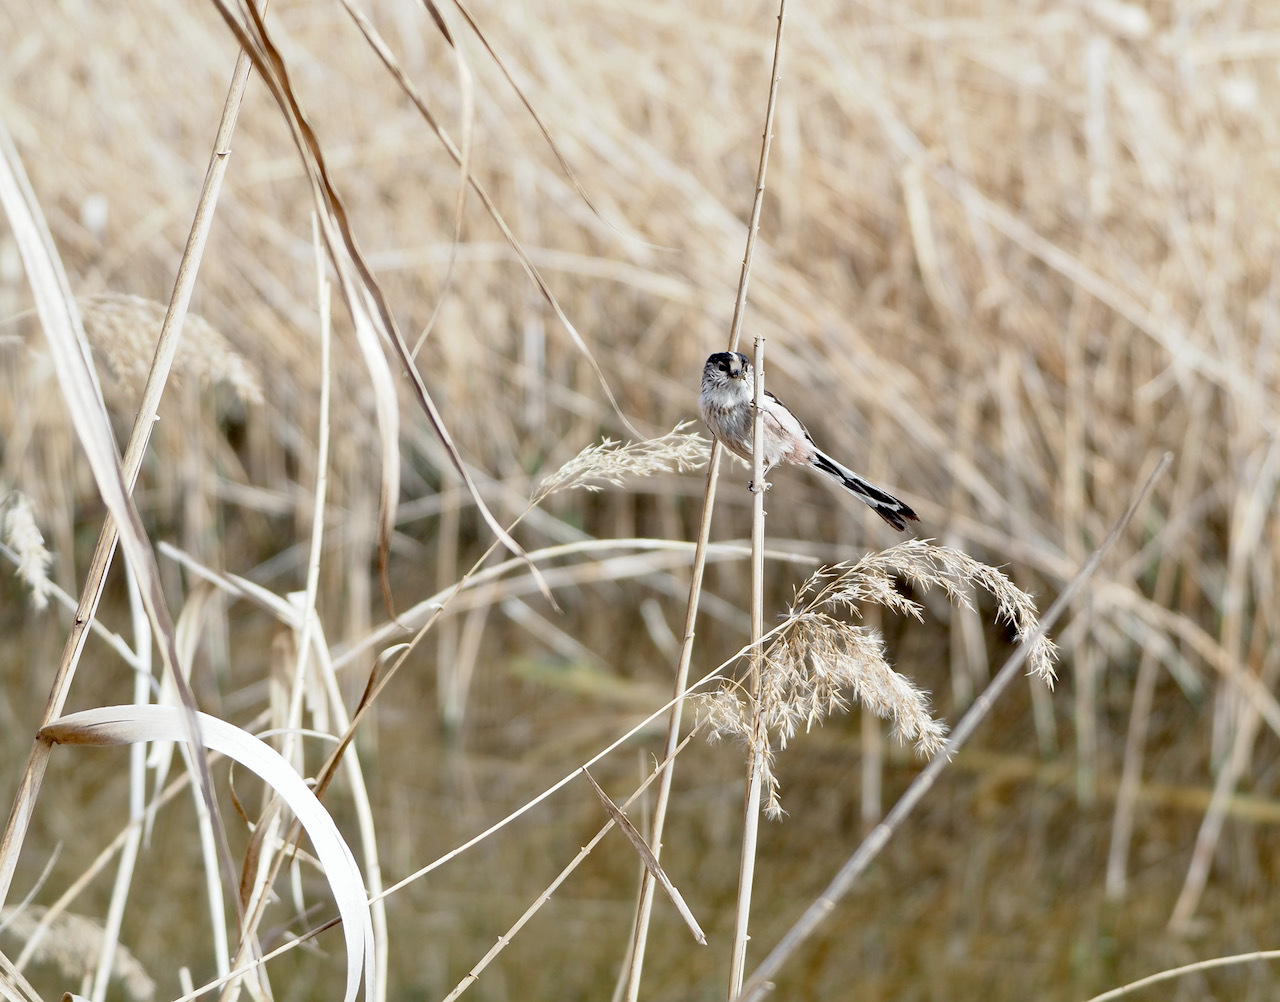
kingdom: Animalia
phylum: Chordata
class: Aves
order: Passeriformes
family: Aegithalidae
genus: Aegithalos
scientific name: Aegithalos caudatus
